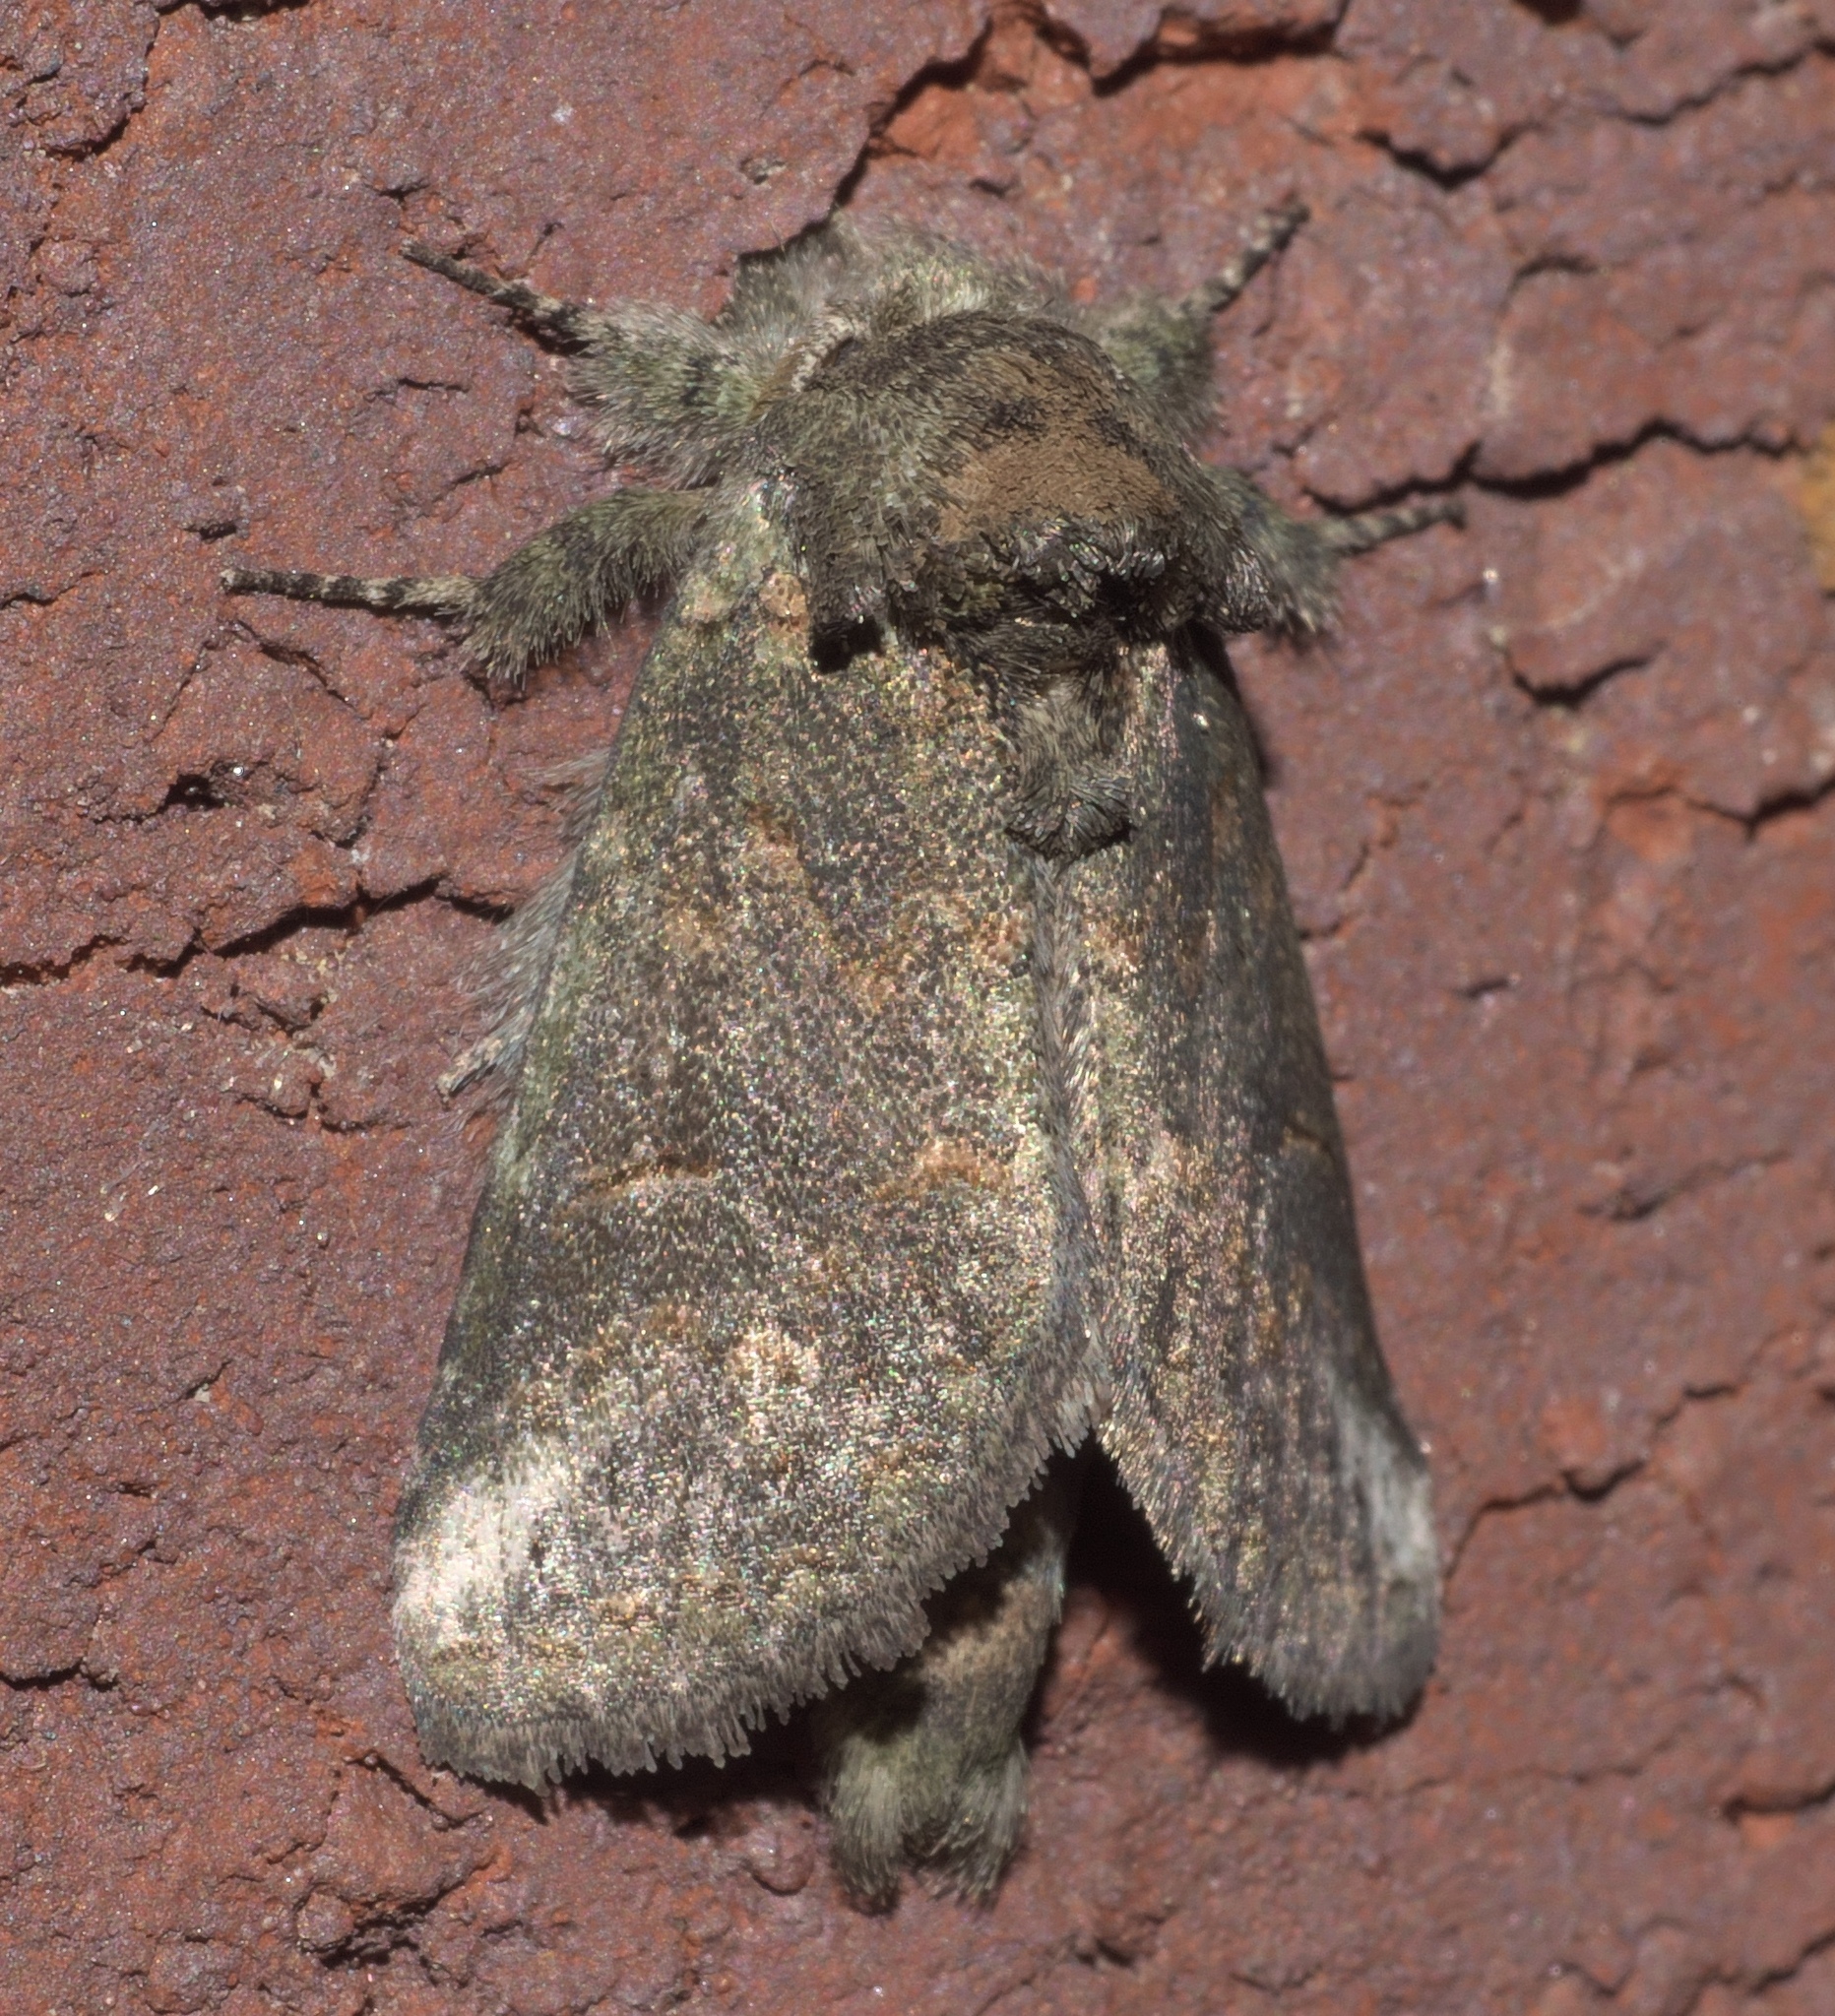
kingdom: Animalia
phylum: Arthropoda
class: Insecta
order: Lepidoptera
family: Notodontidae
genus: Rifargia
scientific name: Rifargia
